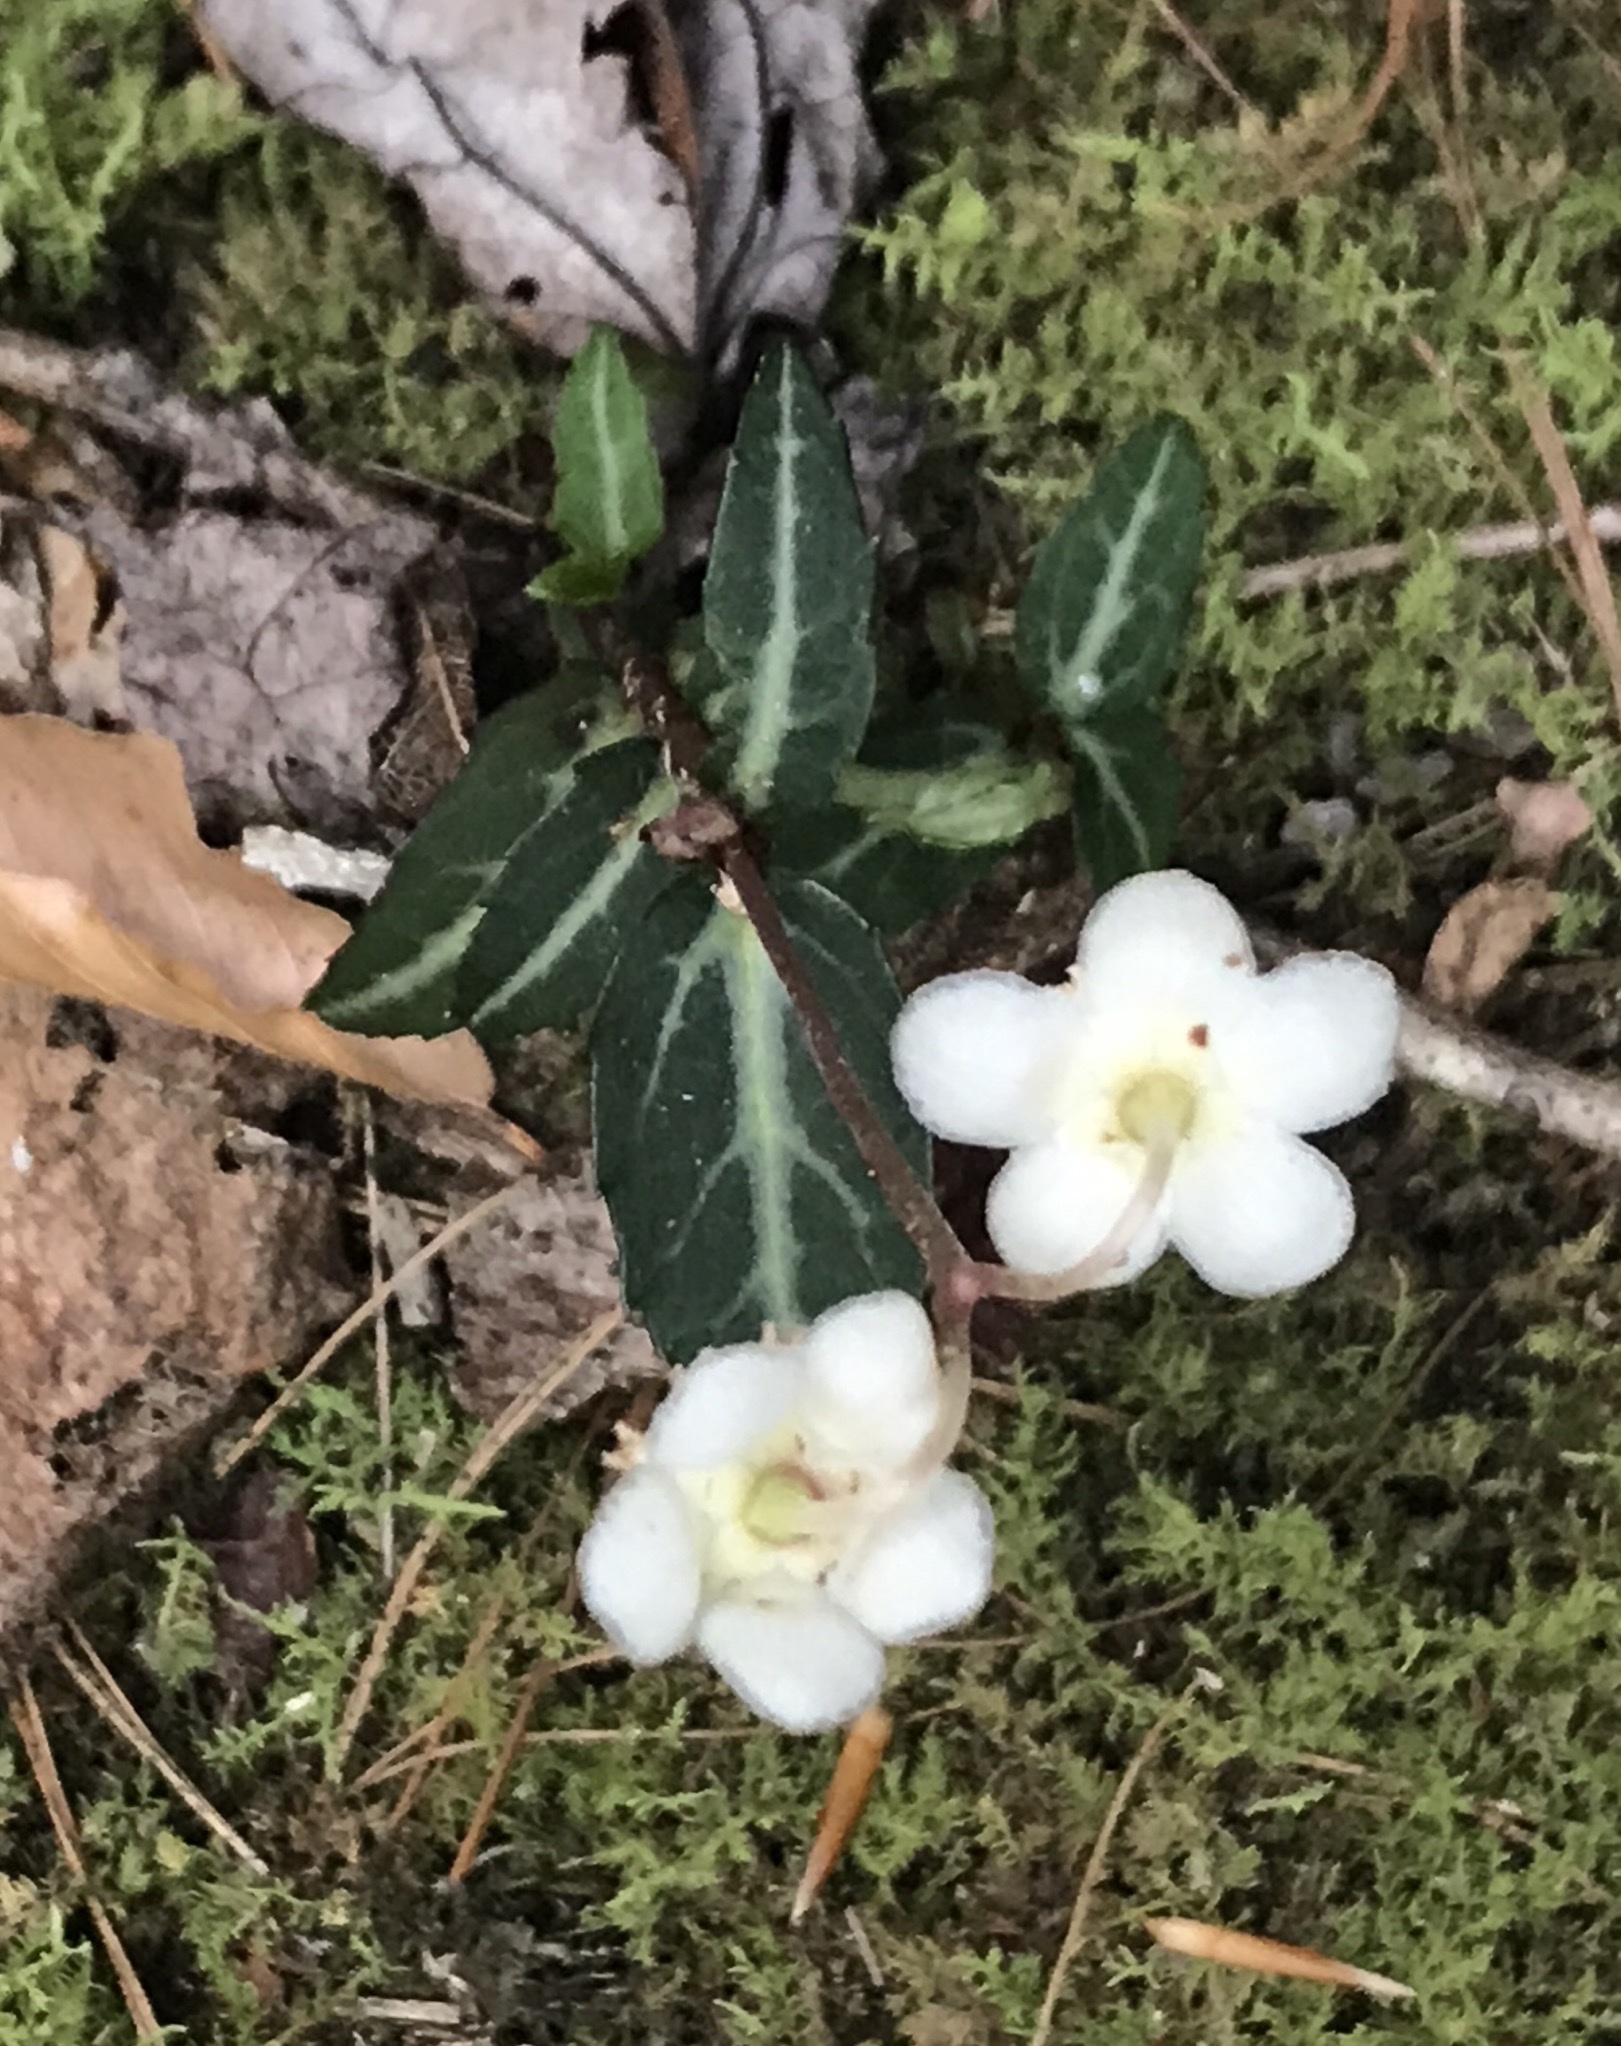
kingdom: Plantae
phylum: Tracheophyta
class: Magnoliopsida
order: Ericales
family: Ericaceae
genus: Chimaphila
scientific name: Chimaphila maculata
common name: Spotted pipsissewa
